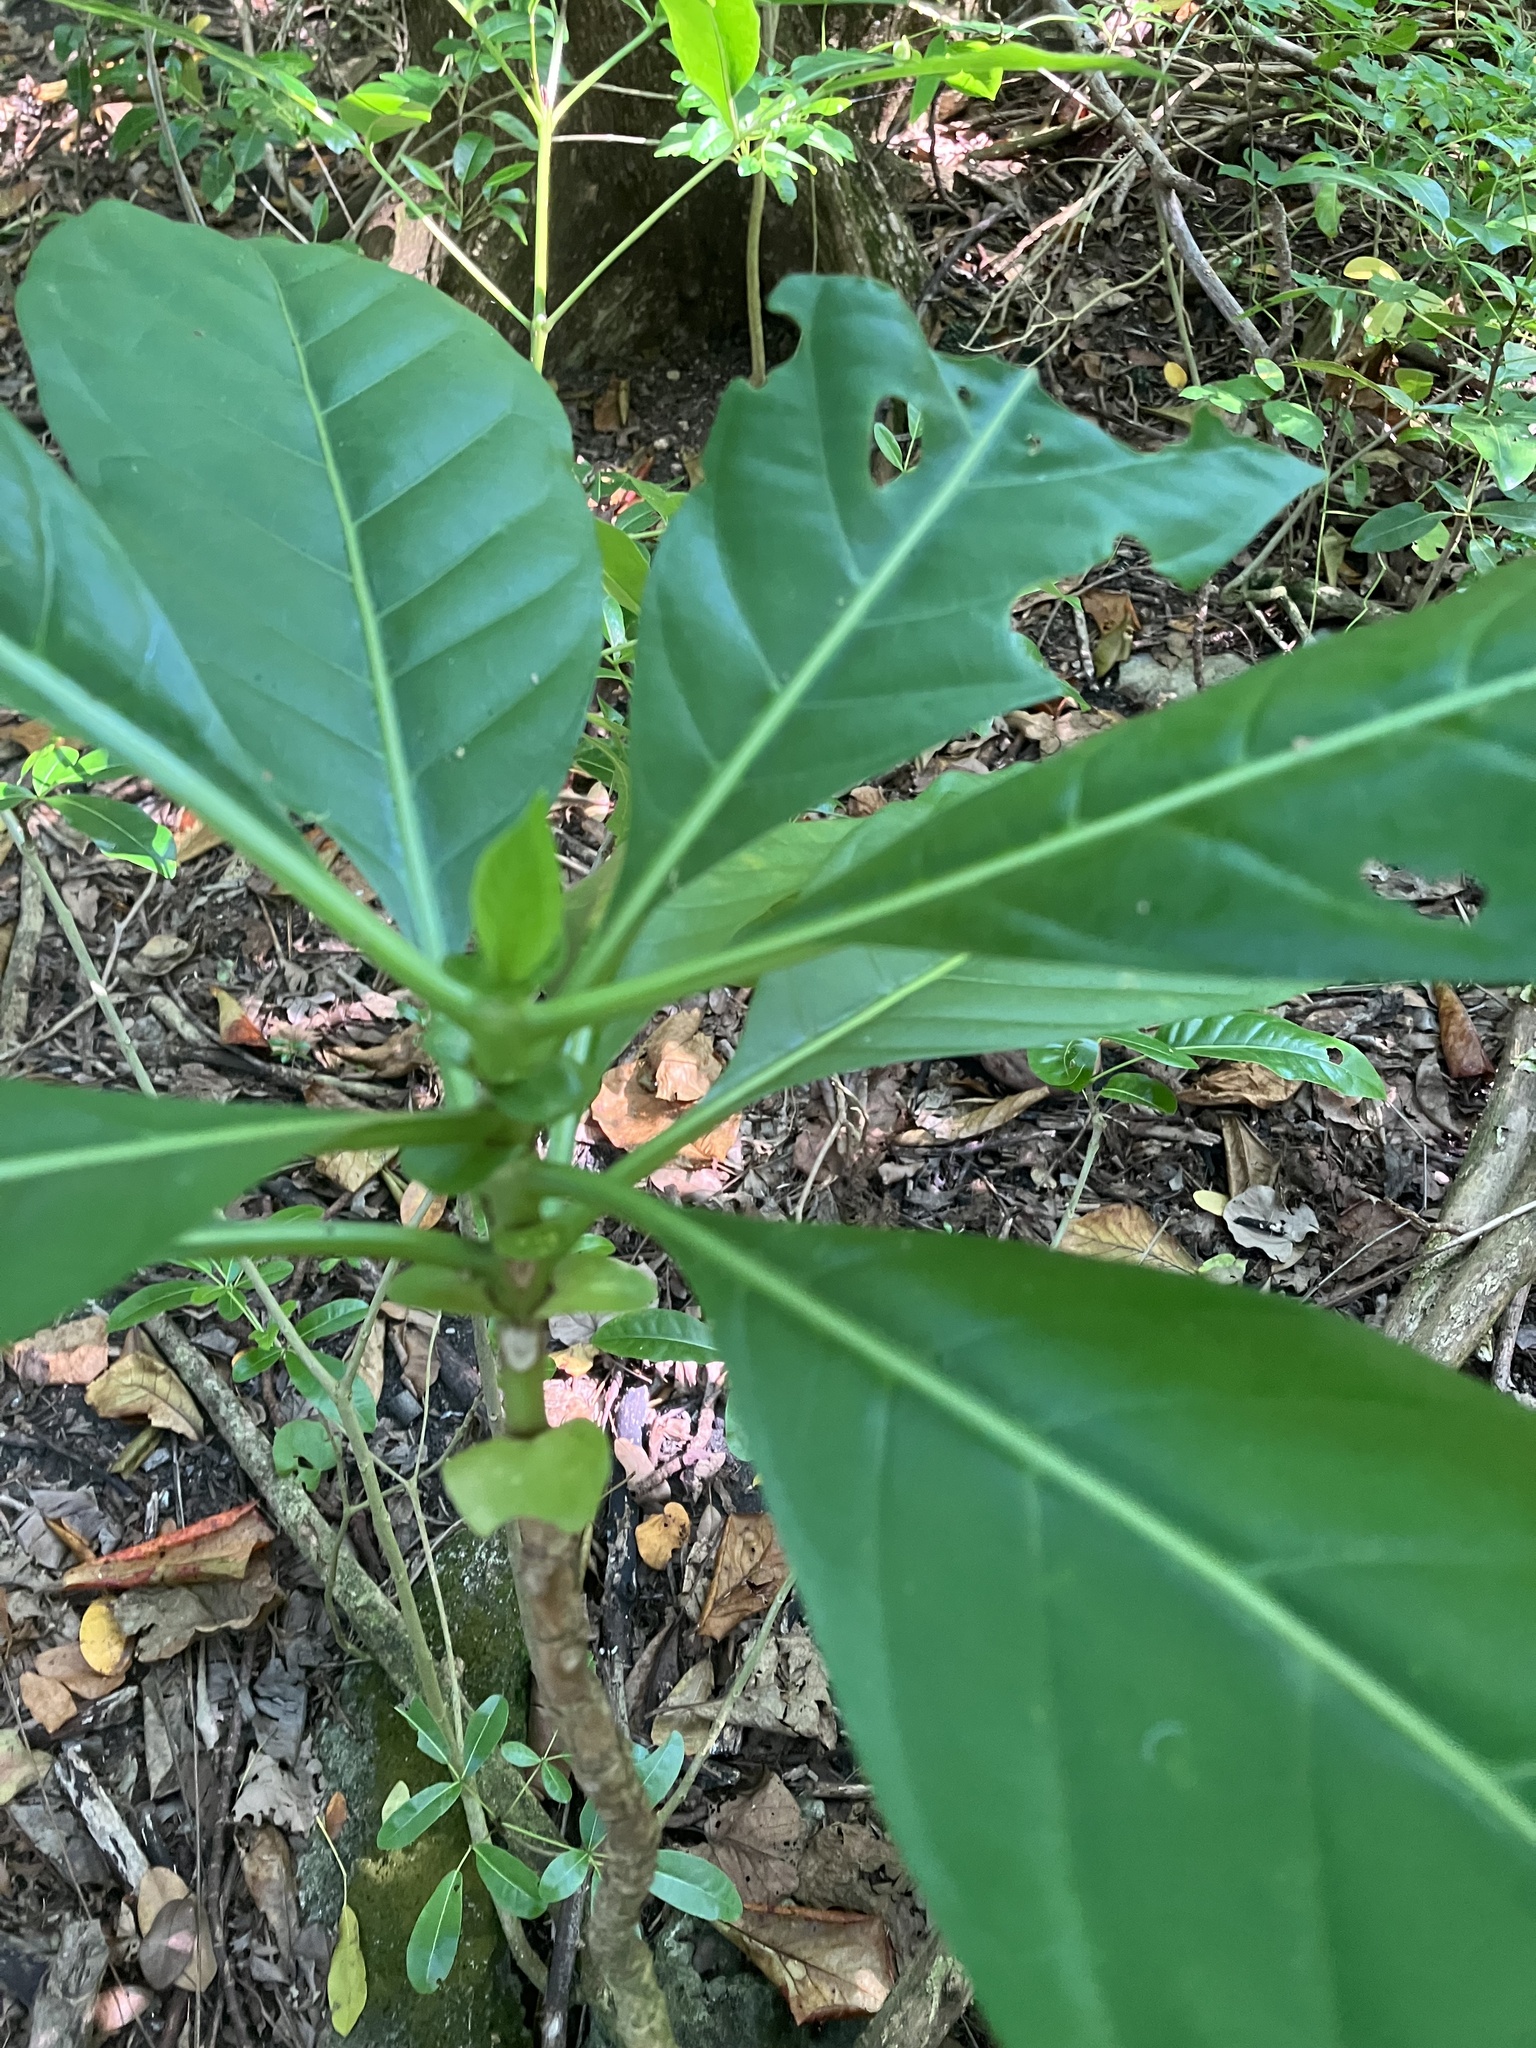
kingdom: Plantae
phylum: Tracheophyta
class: Magnoliopsida
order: Gentianales
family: Rubiaceae
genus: Morinda
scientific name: Morinda citrifolia
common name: Indian-mulberry
